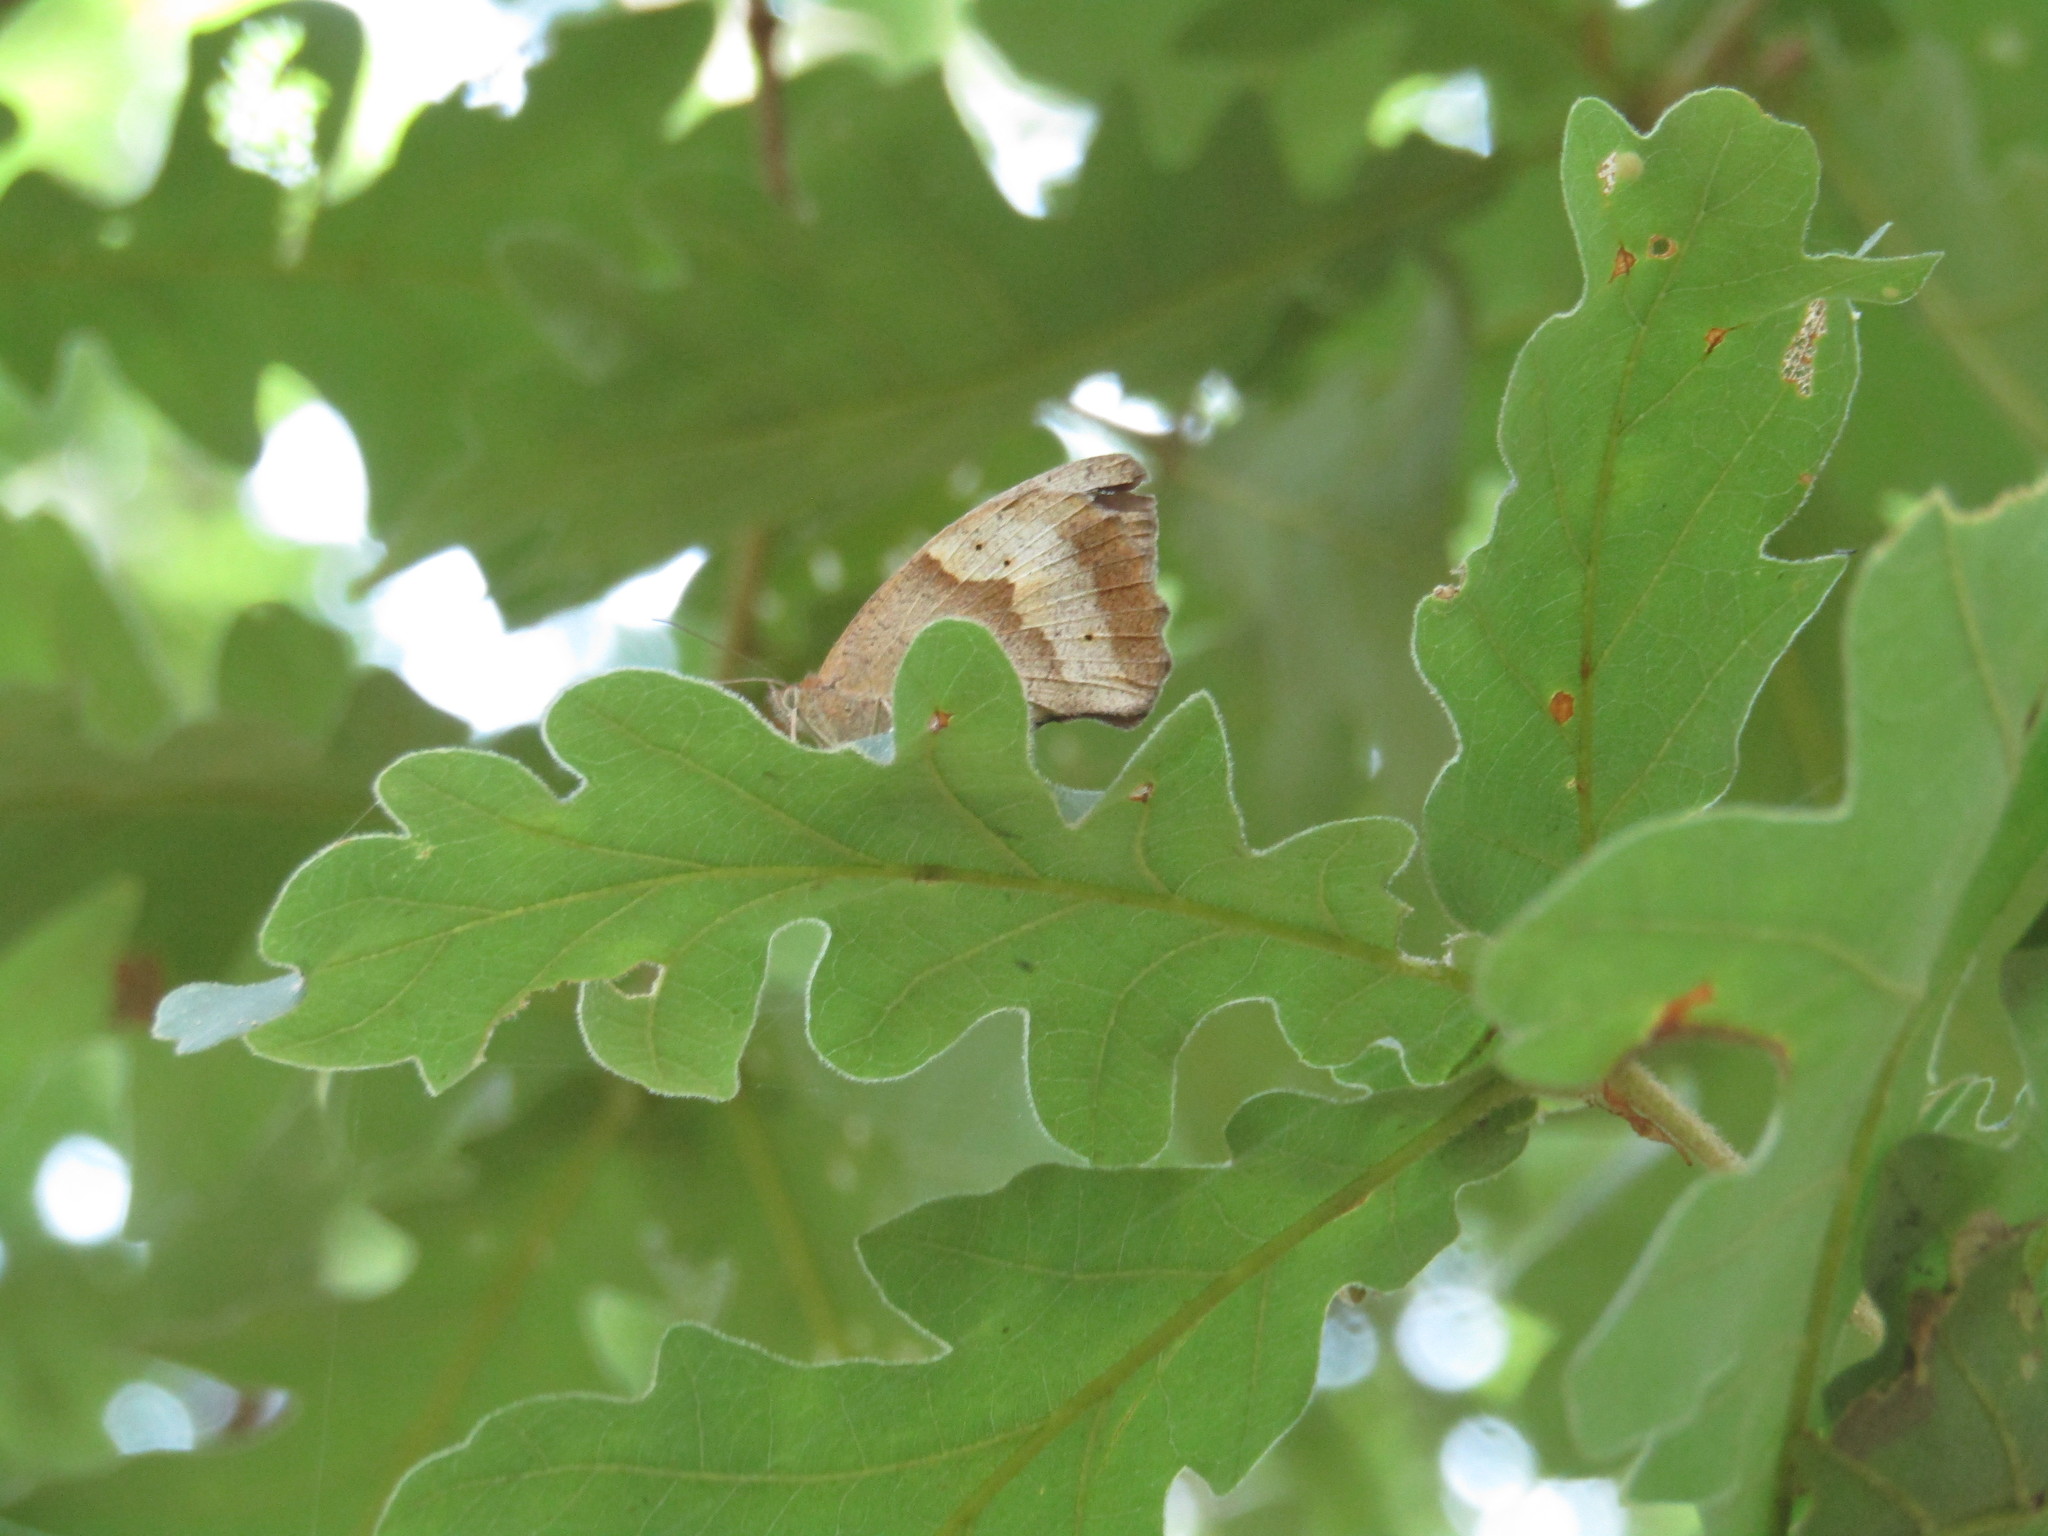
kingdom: Animalia
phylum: Arthropoda
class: Insecta
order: Lepidoptera
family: Nymphalidae
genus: Maniola
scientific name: Maniola jurtina
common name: Meadow brown
